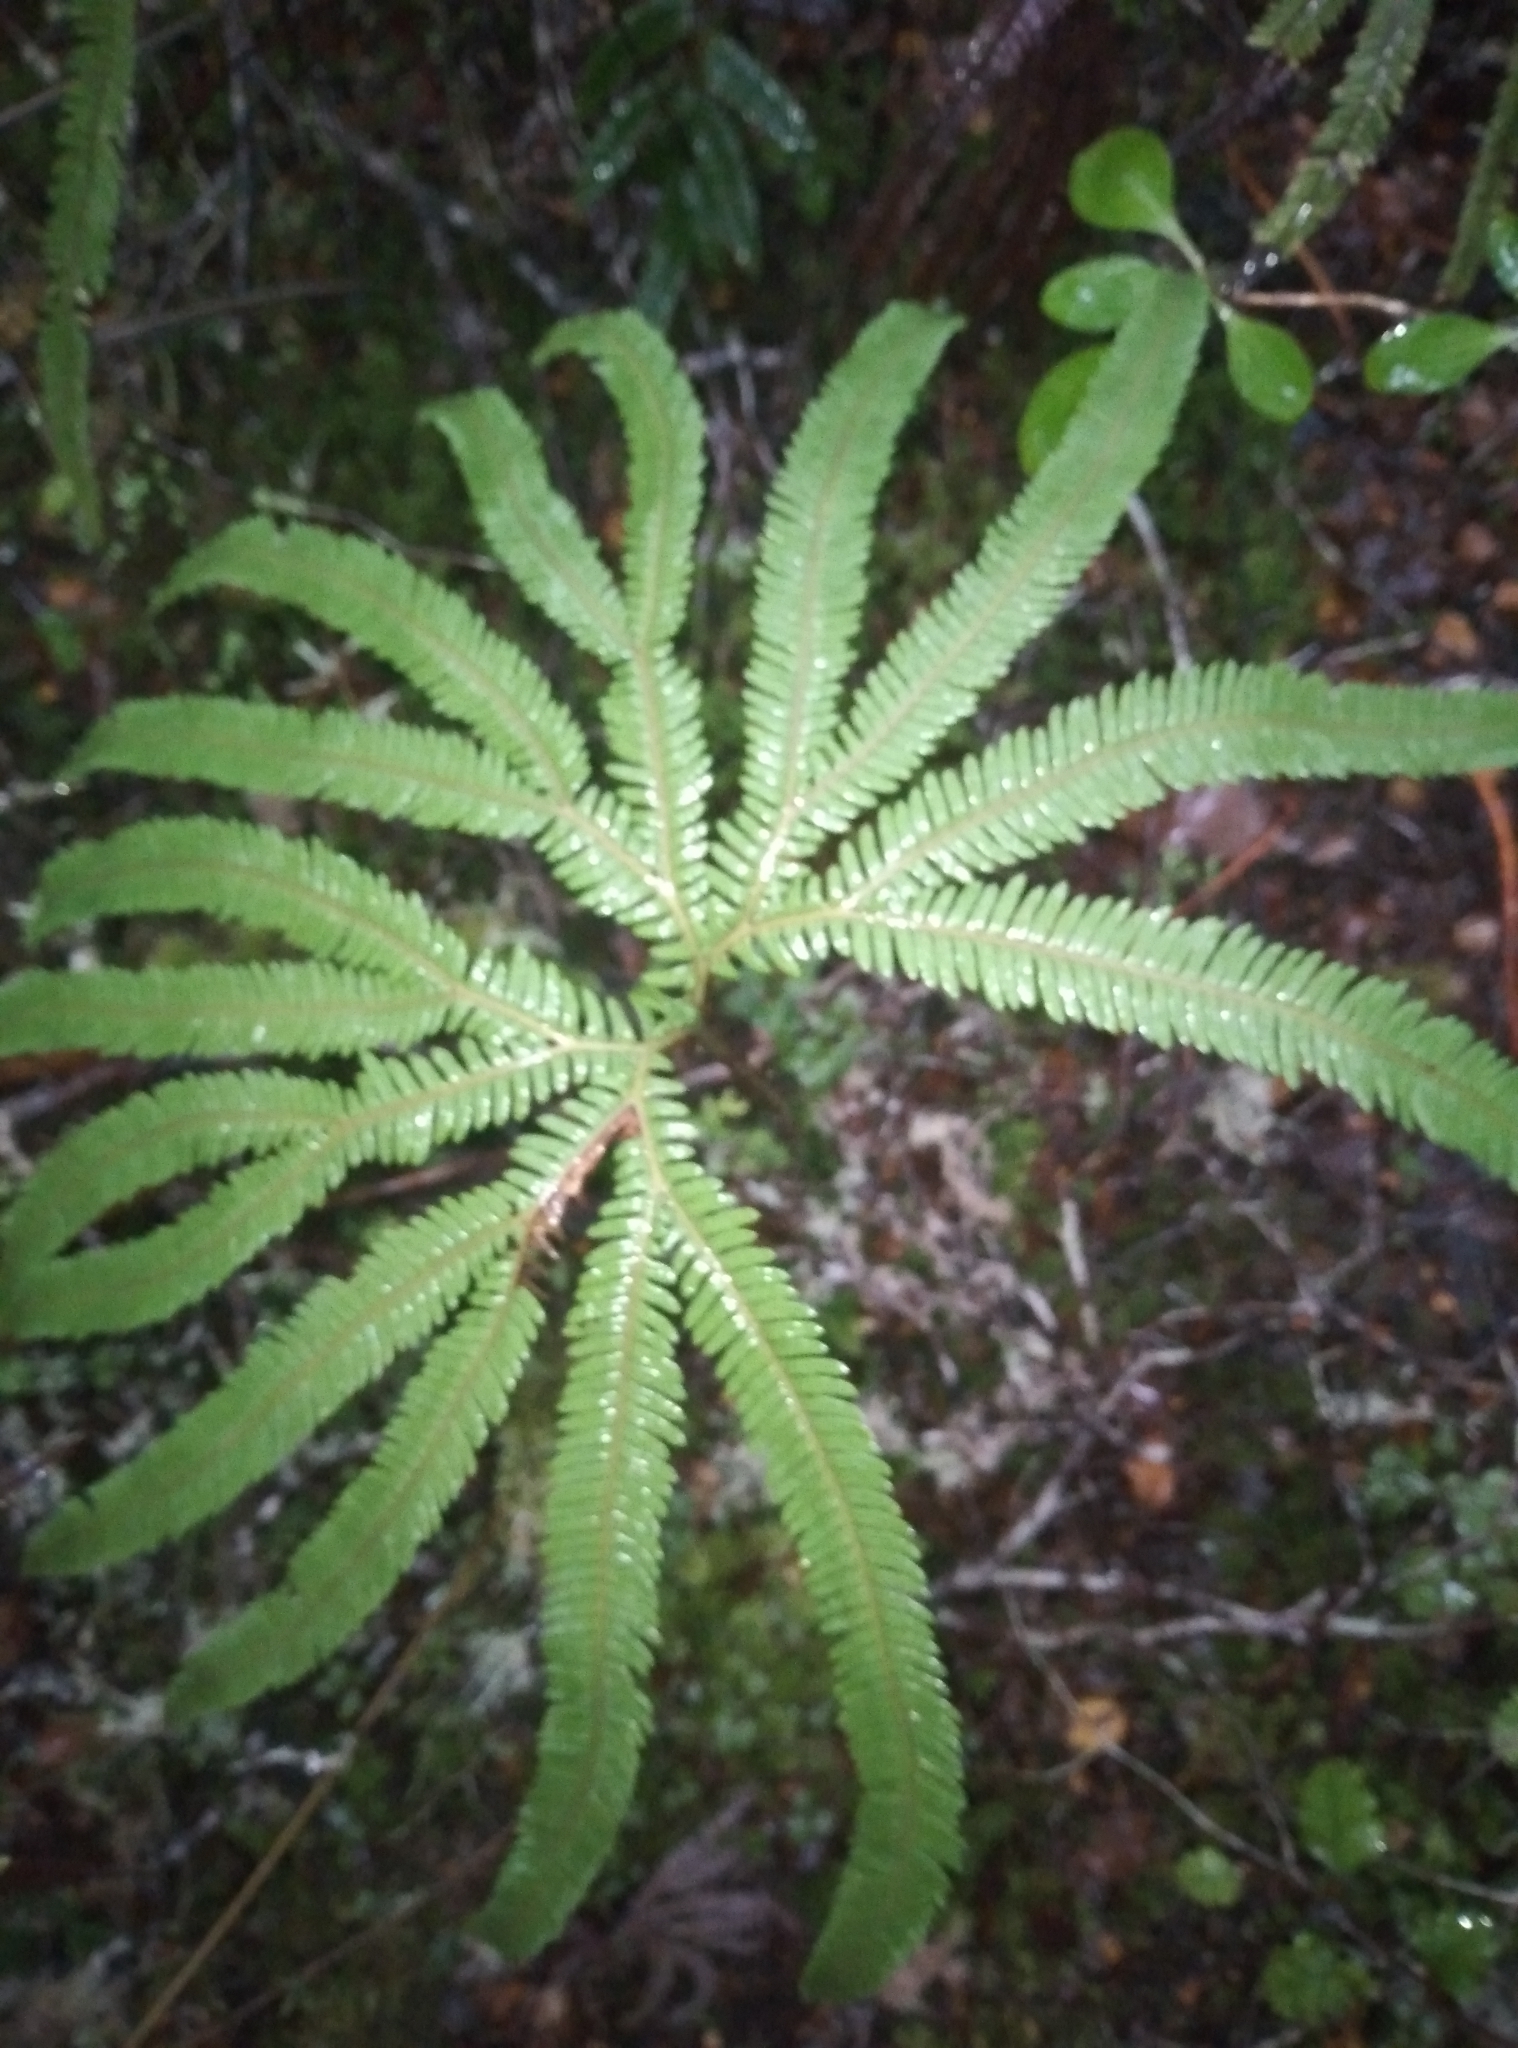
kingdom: Plantae
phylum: Tracheophyta
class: Polypodiopsida
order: Gleicheniales
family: Gleicheniaceae
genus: Sticherus
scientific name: Sticherus cunninghamii
